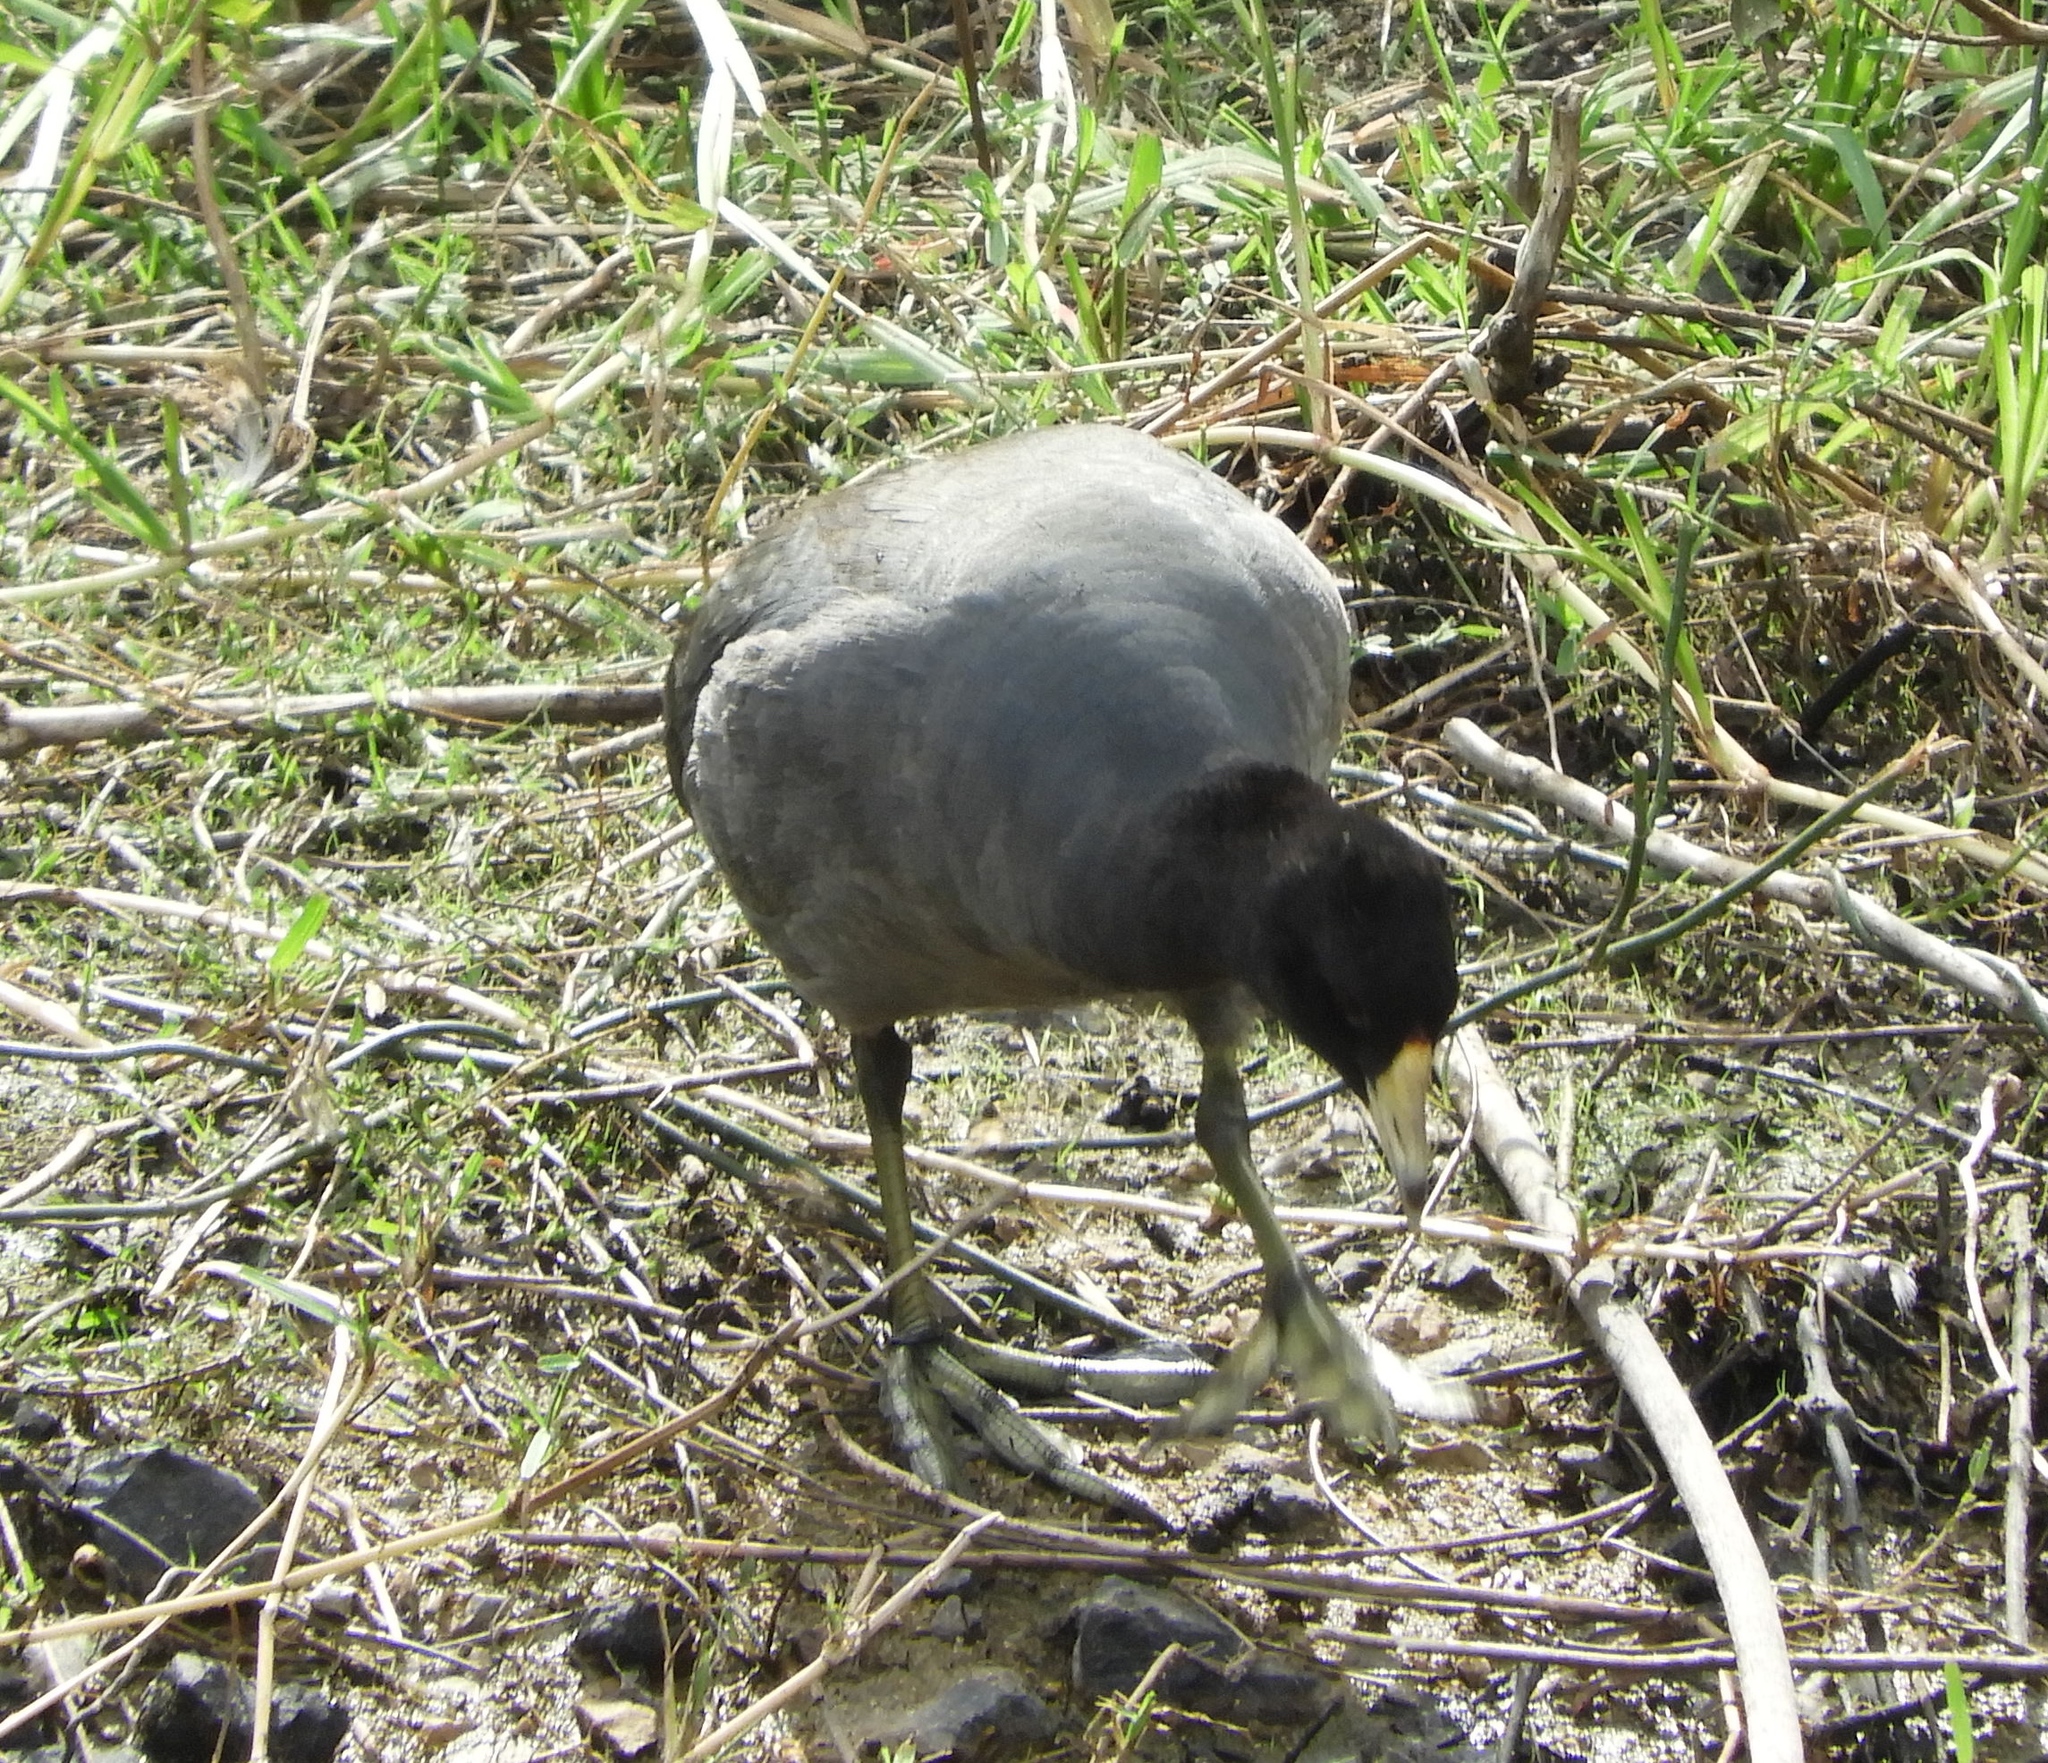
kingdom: Animalia
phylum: Chordata
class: Aves
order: Gruiformes
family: Rallidae
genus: Fulica
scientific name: Fulica americana
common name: American coot
